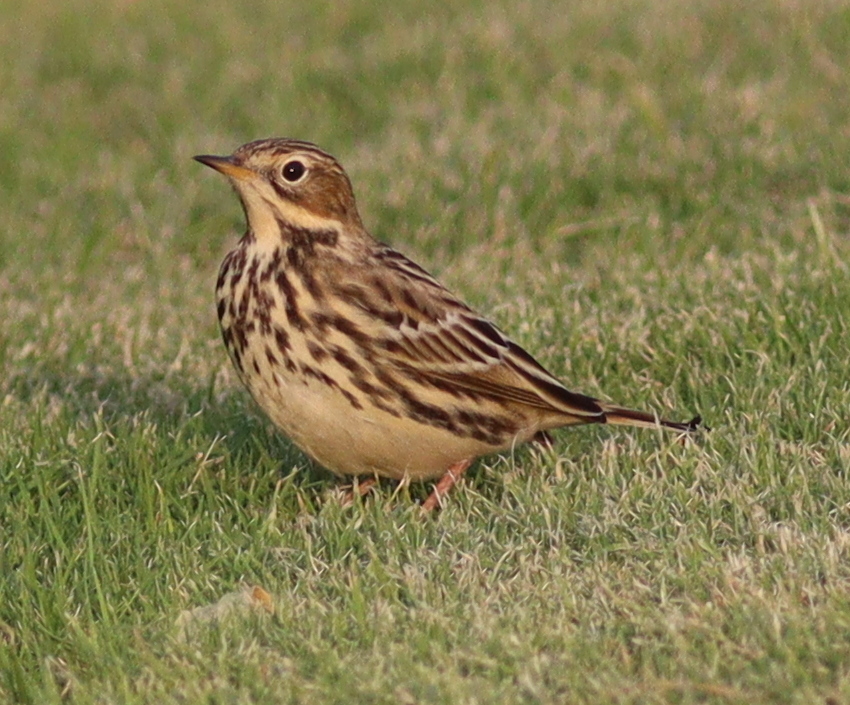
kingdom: Animalia
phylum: Chordata
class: Aves
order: Passeriformes
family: Motacillidae
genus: Anthus
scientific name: Anthus cervinus
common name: Red-throated pipit
